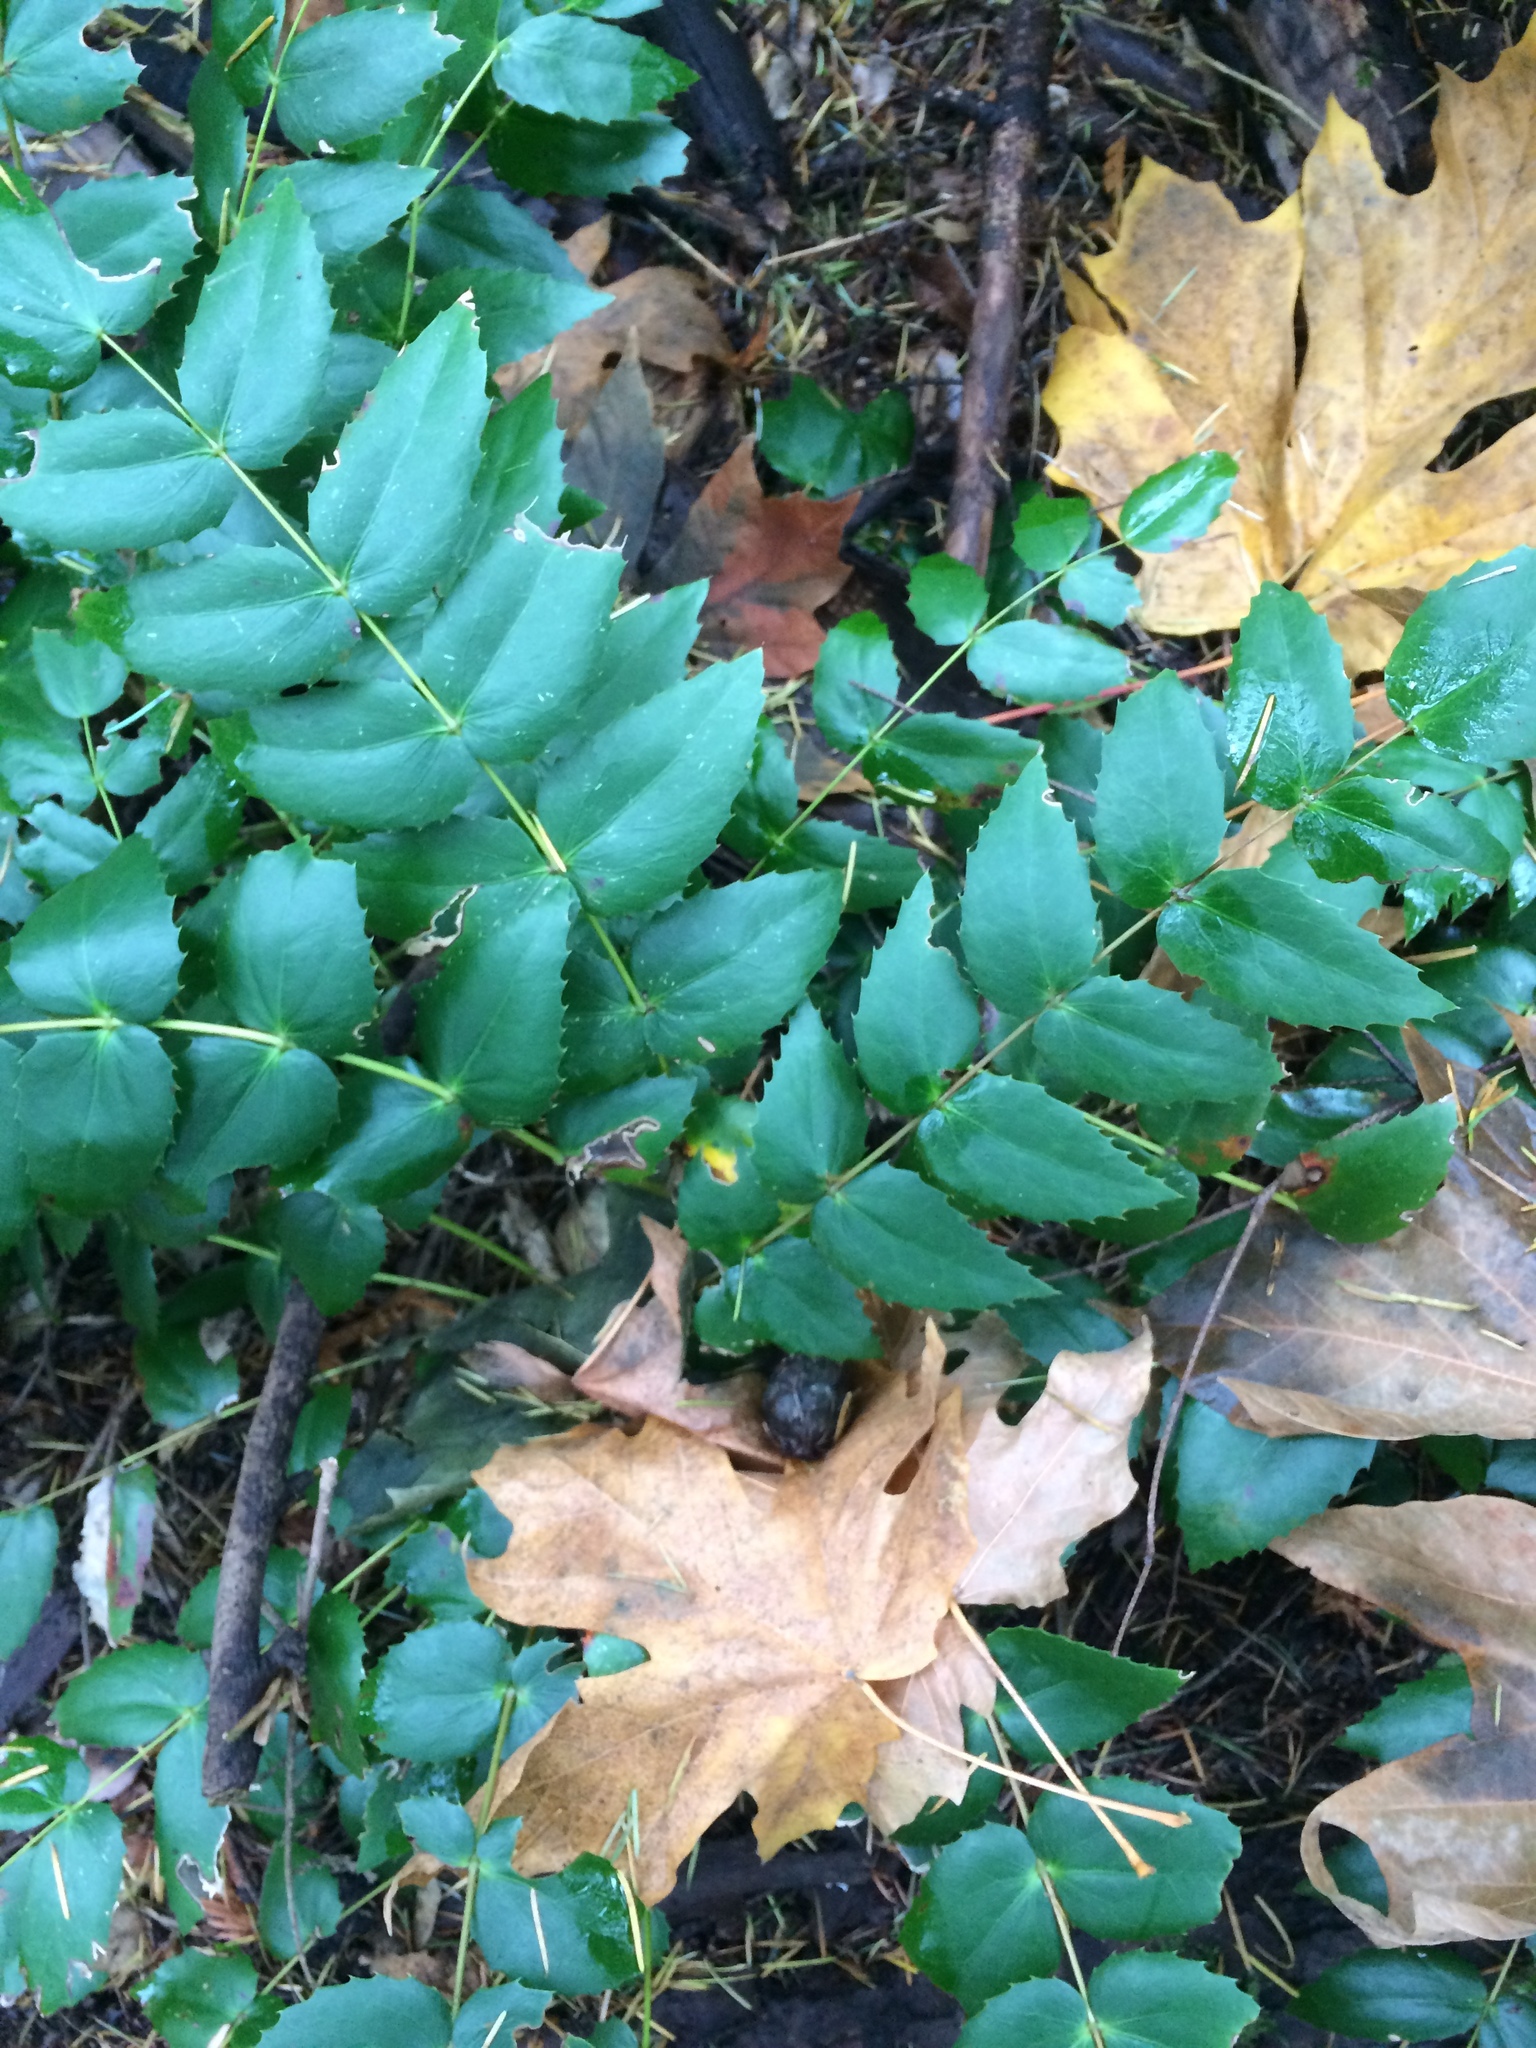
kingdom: Plantae
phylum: Tracheophyta
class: Magnoliopsida
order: Ranunculales
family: Berberidaceae
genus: Mahonia
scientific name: Mahonia nervosa
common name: Cascade oregon-grape
